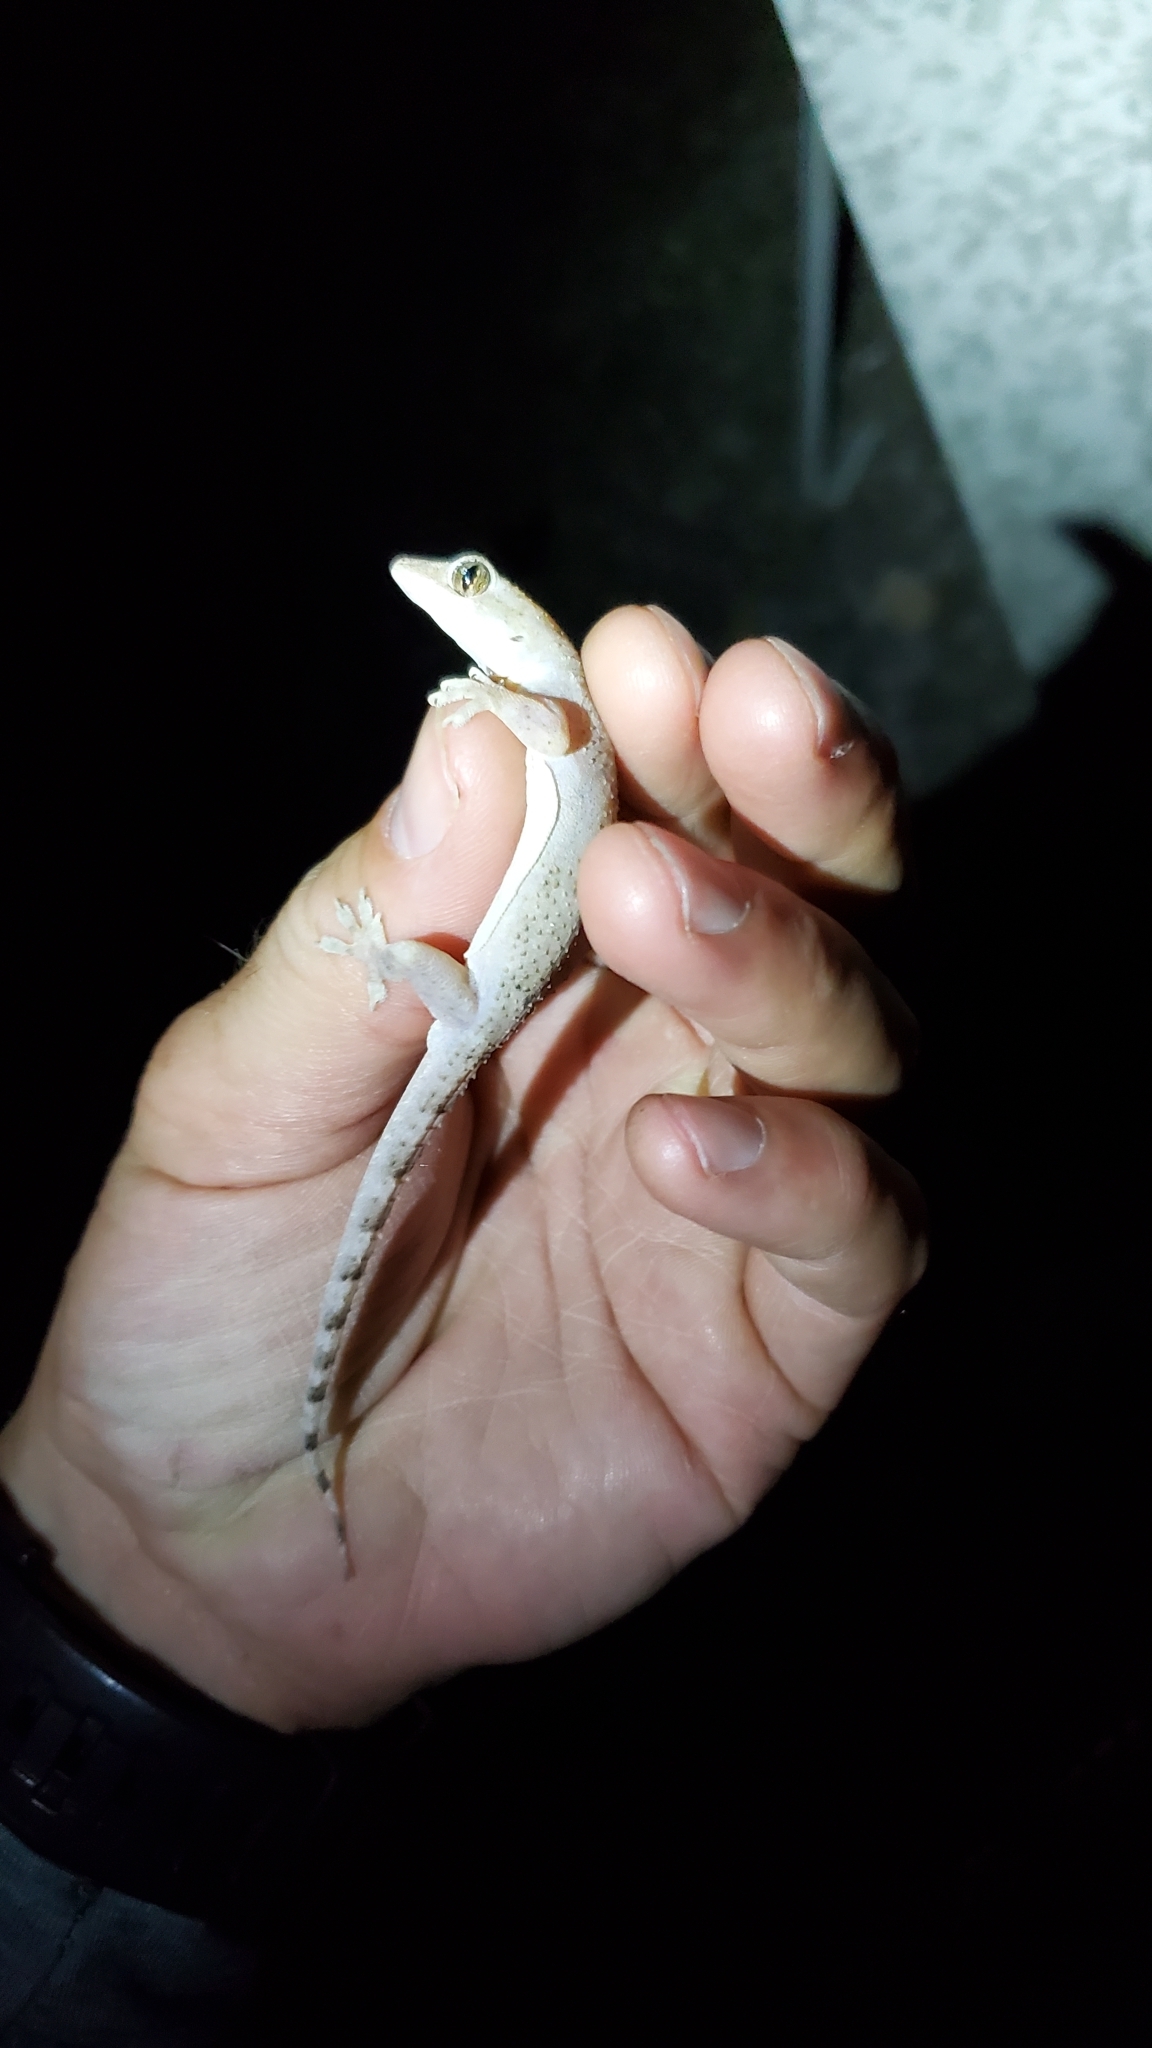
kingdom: Animalia
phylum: Chordata
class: Squamata
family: Gekkonidae
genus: Hemidactylus
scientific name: Hemidactylus mabouia
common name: House gecko
